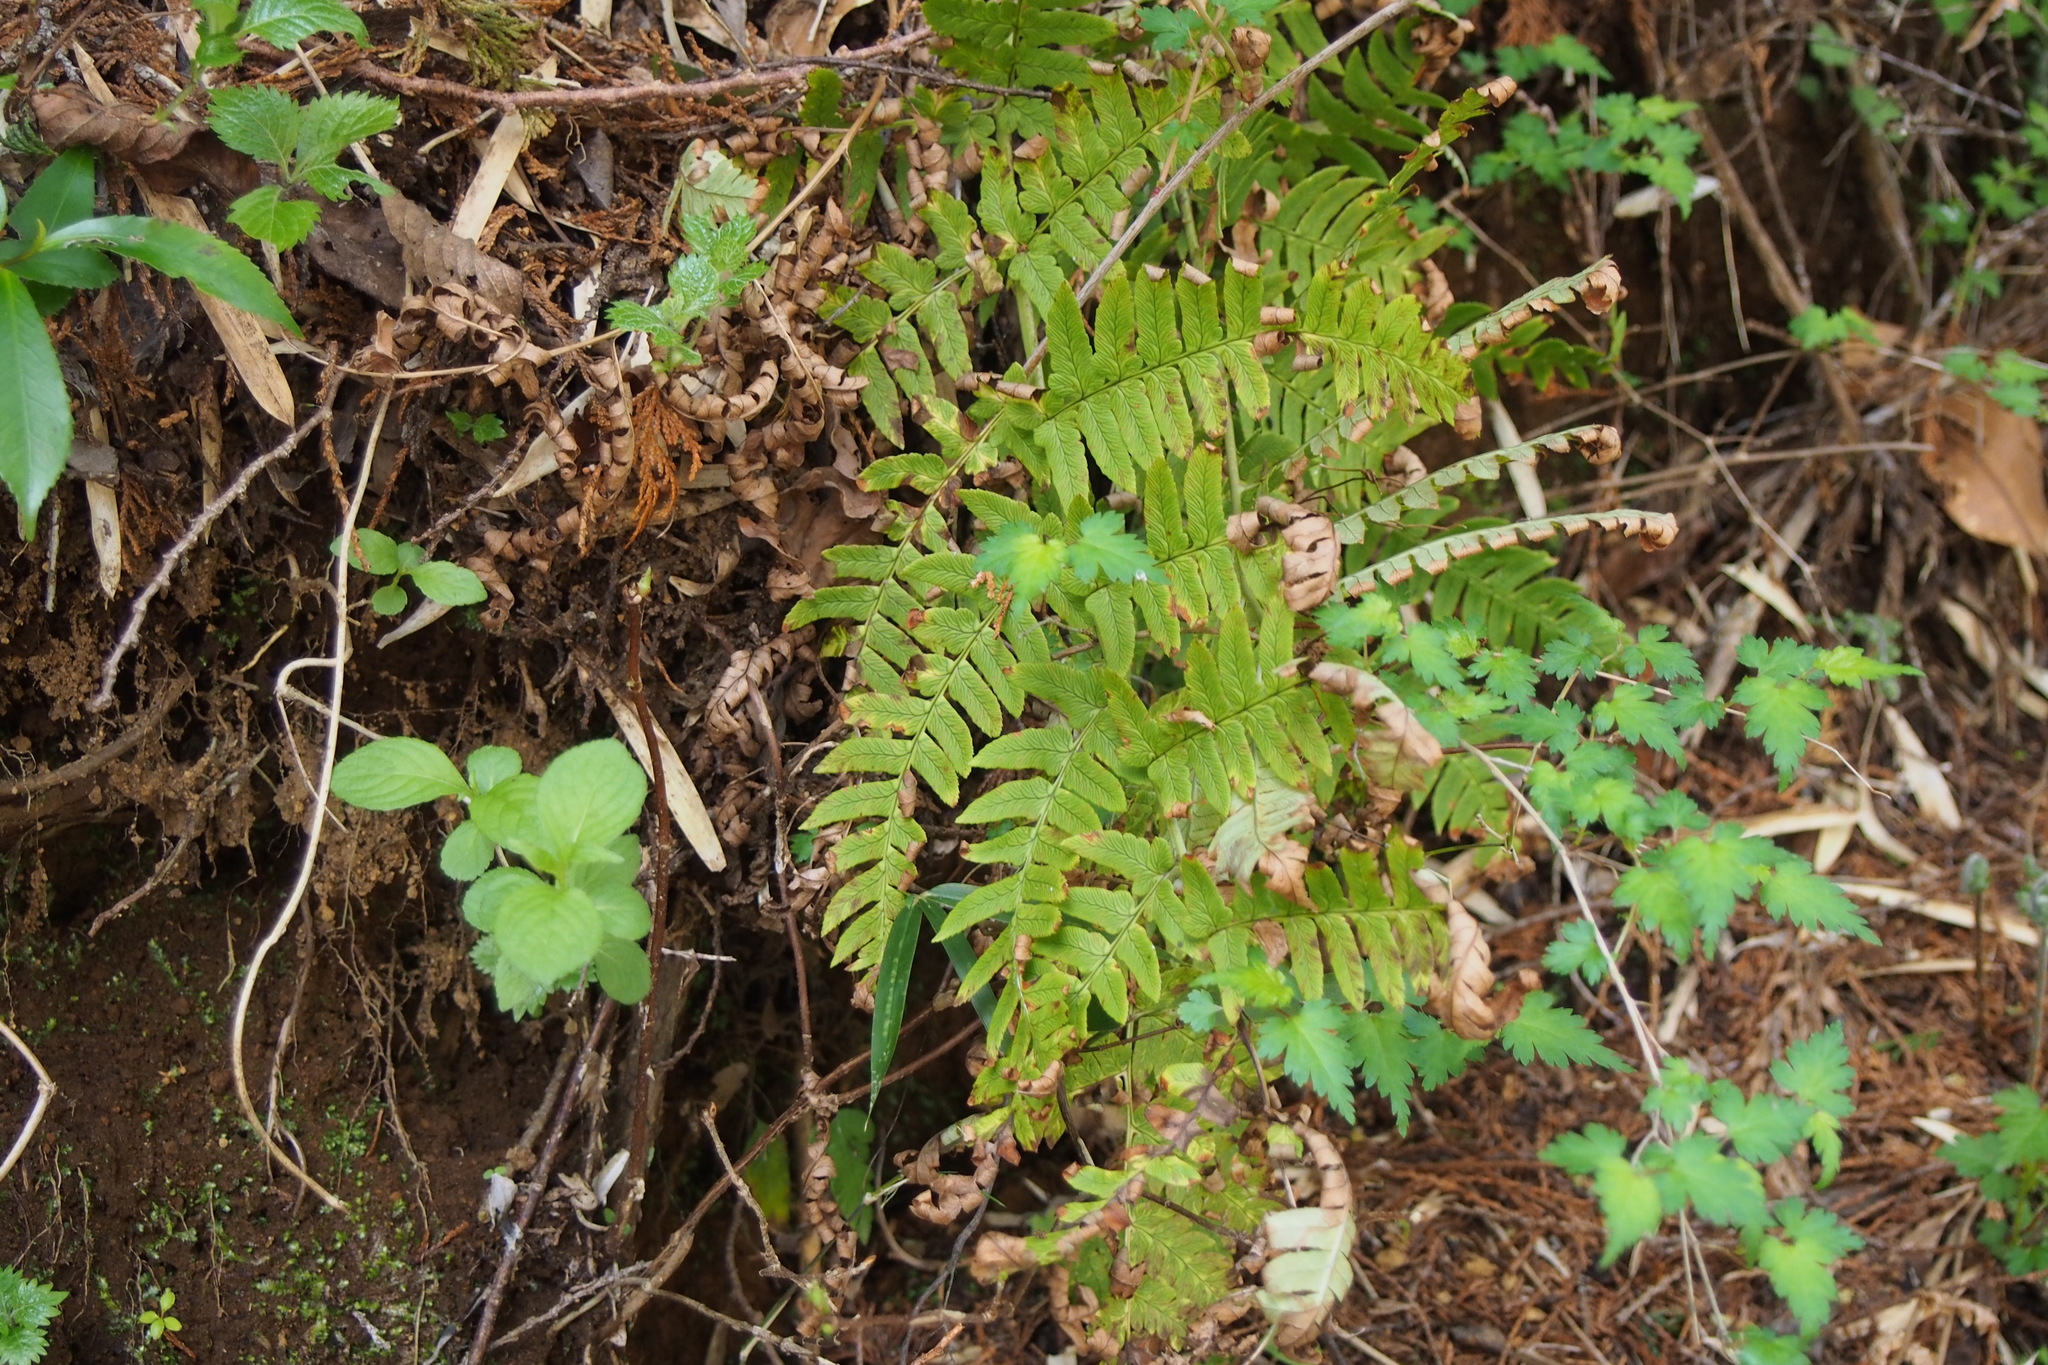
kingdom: Plantae
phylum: Tracheophyta
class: Polypodiopsida
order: Polypodiales
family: Dryopteridaceae
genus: Dryopteris
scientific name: Dryopteris lacera
